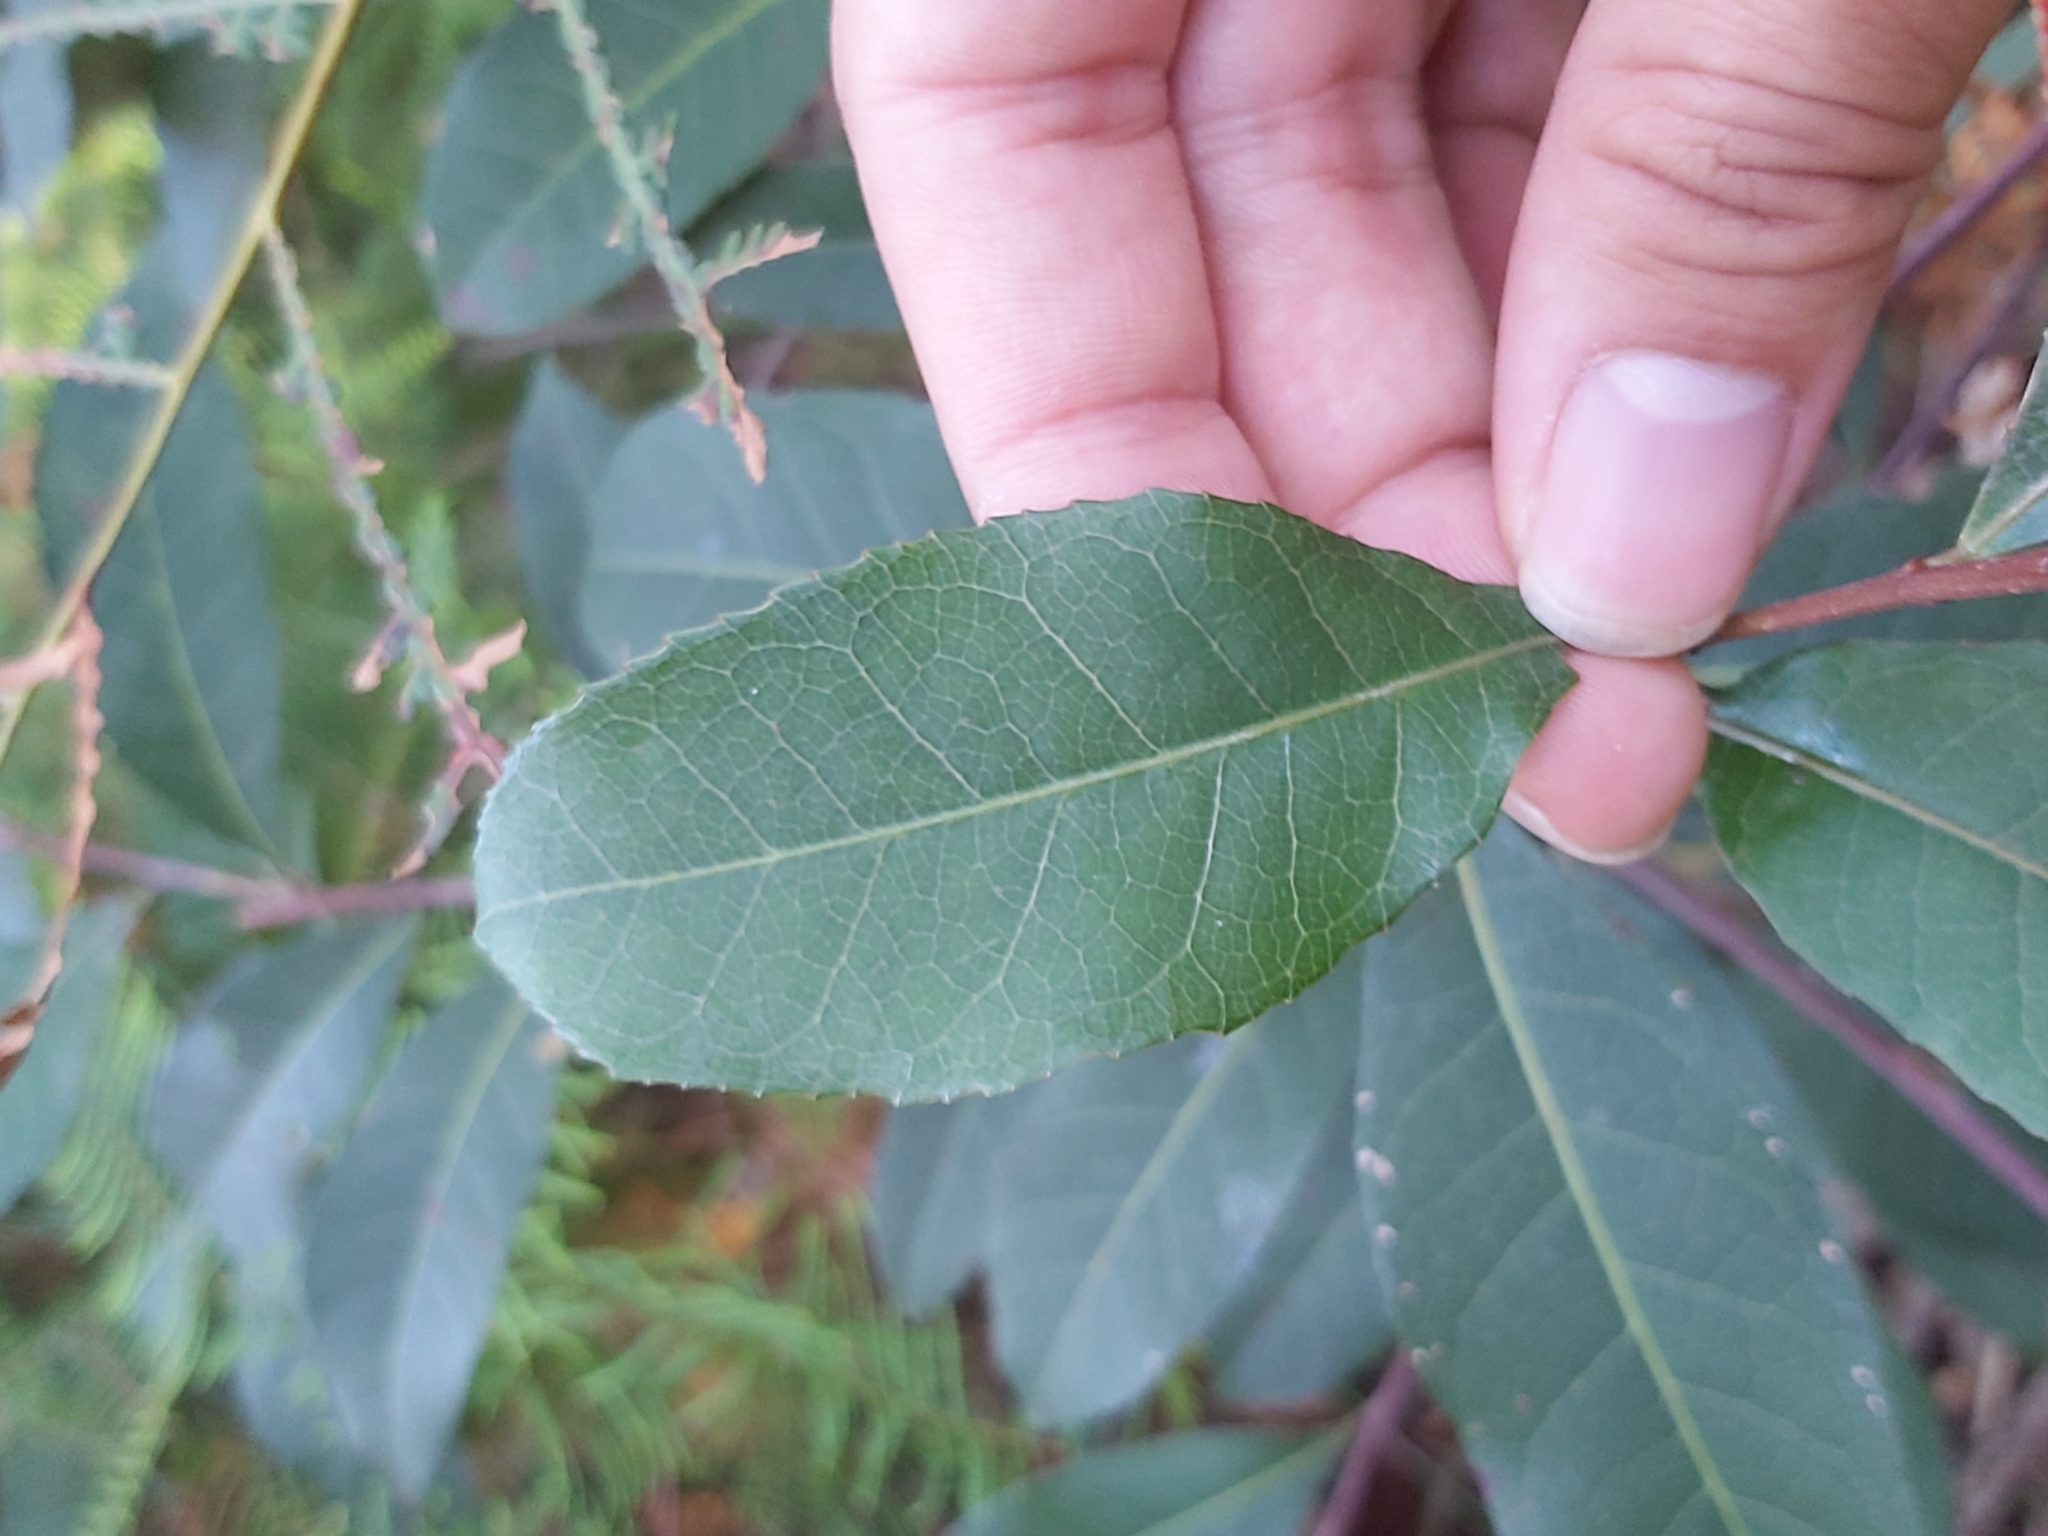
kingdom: Plantae
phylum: Tracheophyta
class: Magnoliopsida
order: Oxalidales
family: Elaeocarpaceae
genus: Elaeocarpus
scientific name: Elaeocarpus reticulatus
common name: Ash quandong
